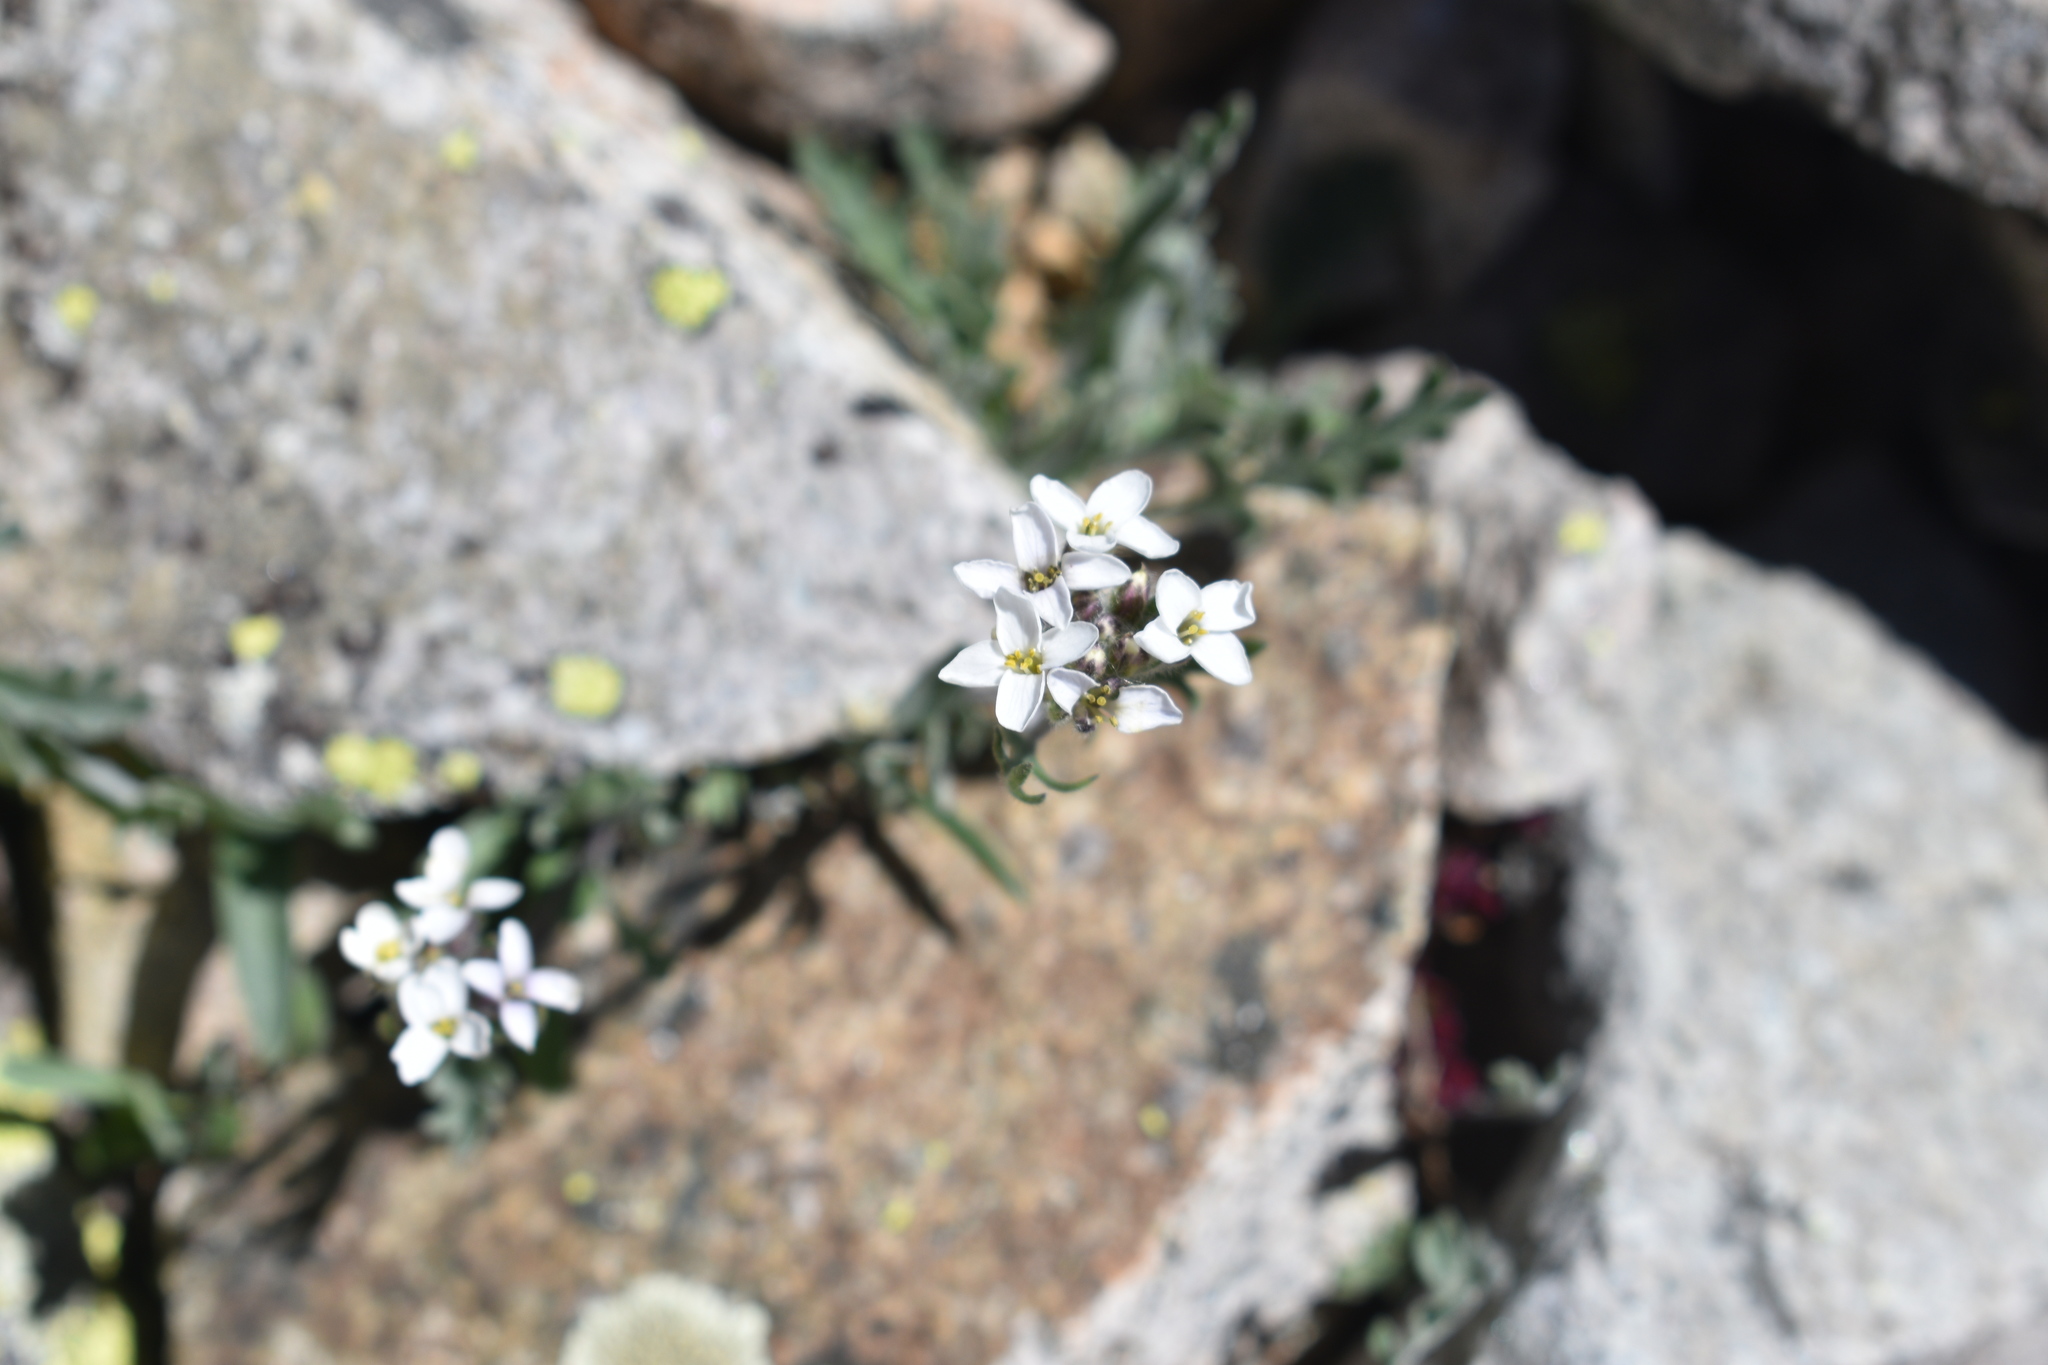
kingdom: Plantae
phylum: Tracheophyta
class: Magnoliopsida
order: Brassicales
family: Brassicaceae
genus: Smelowskia
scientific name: Smelowskia americana
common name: American false candytuft
